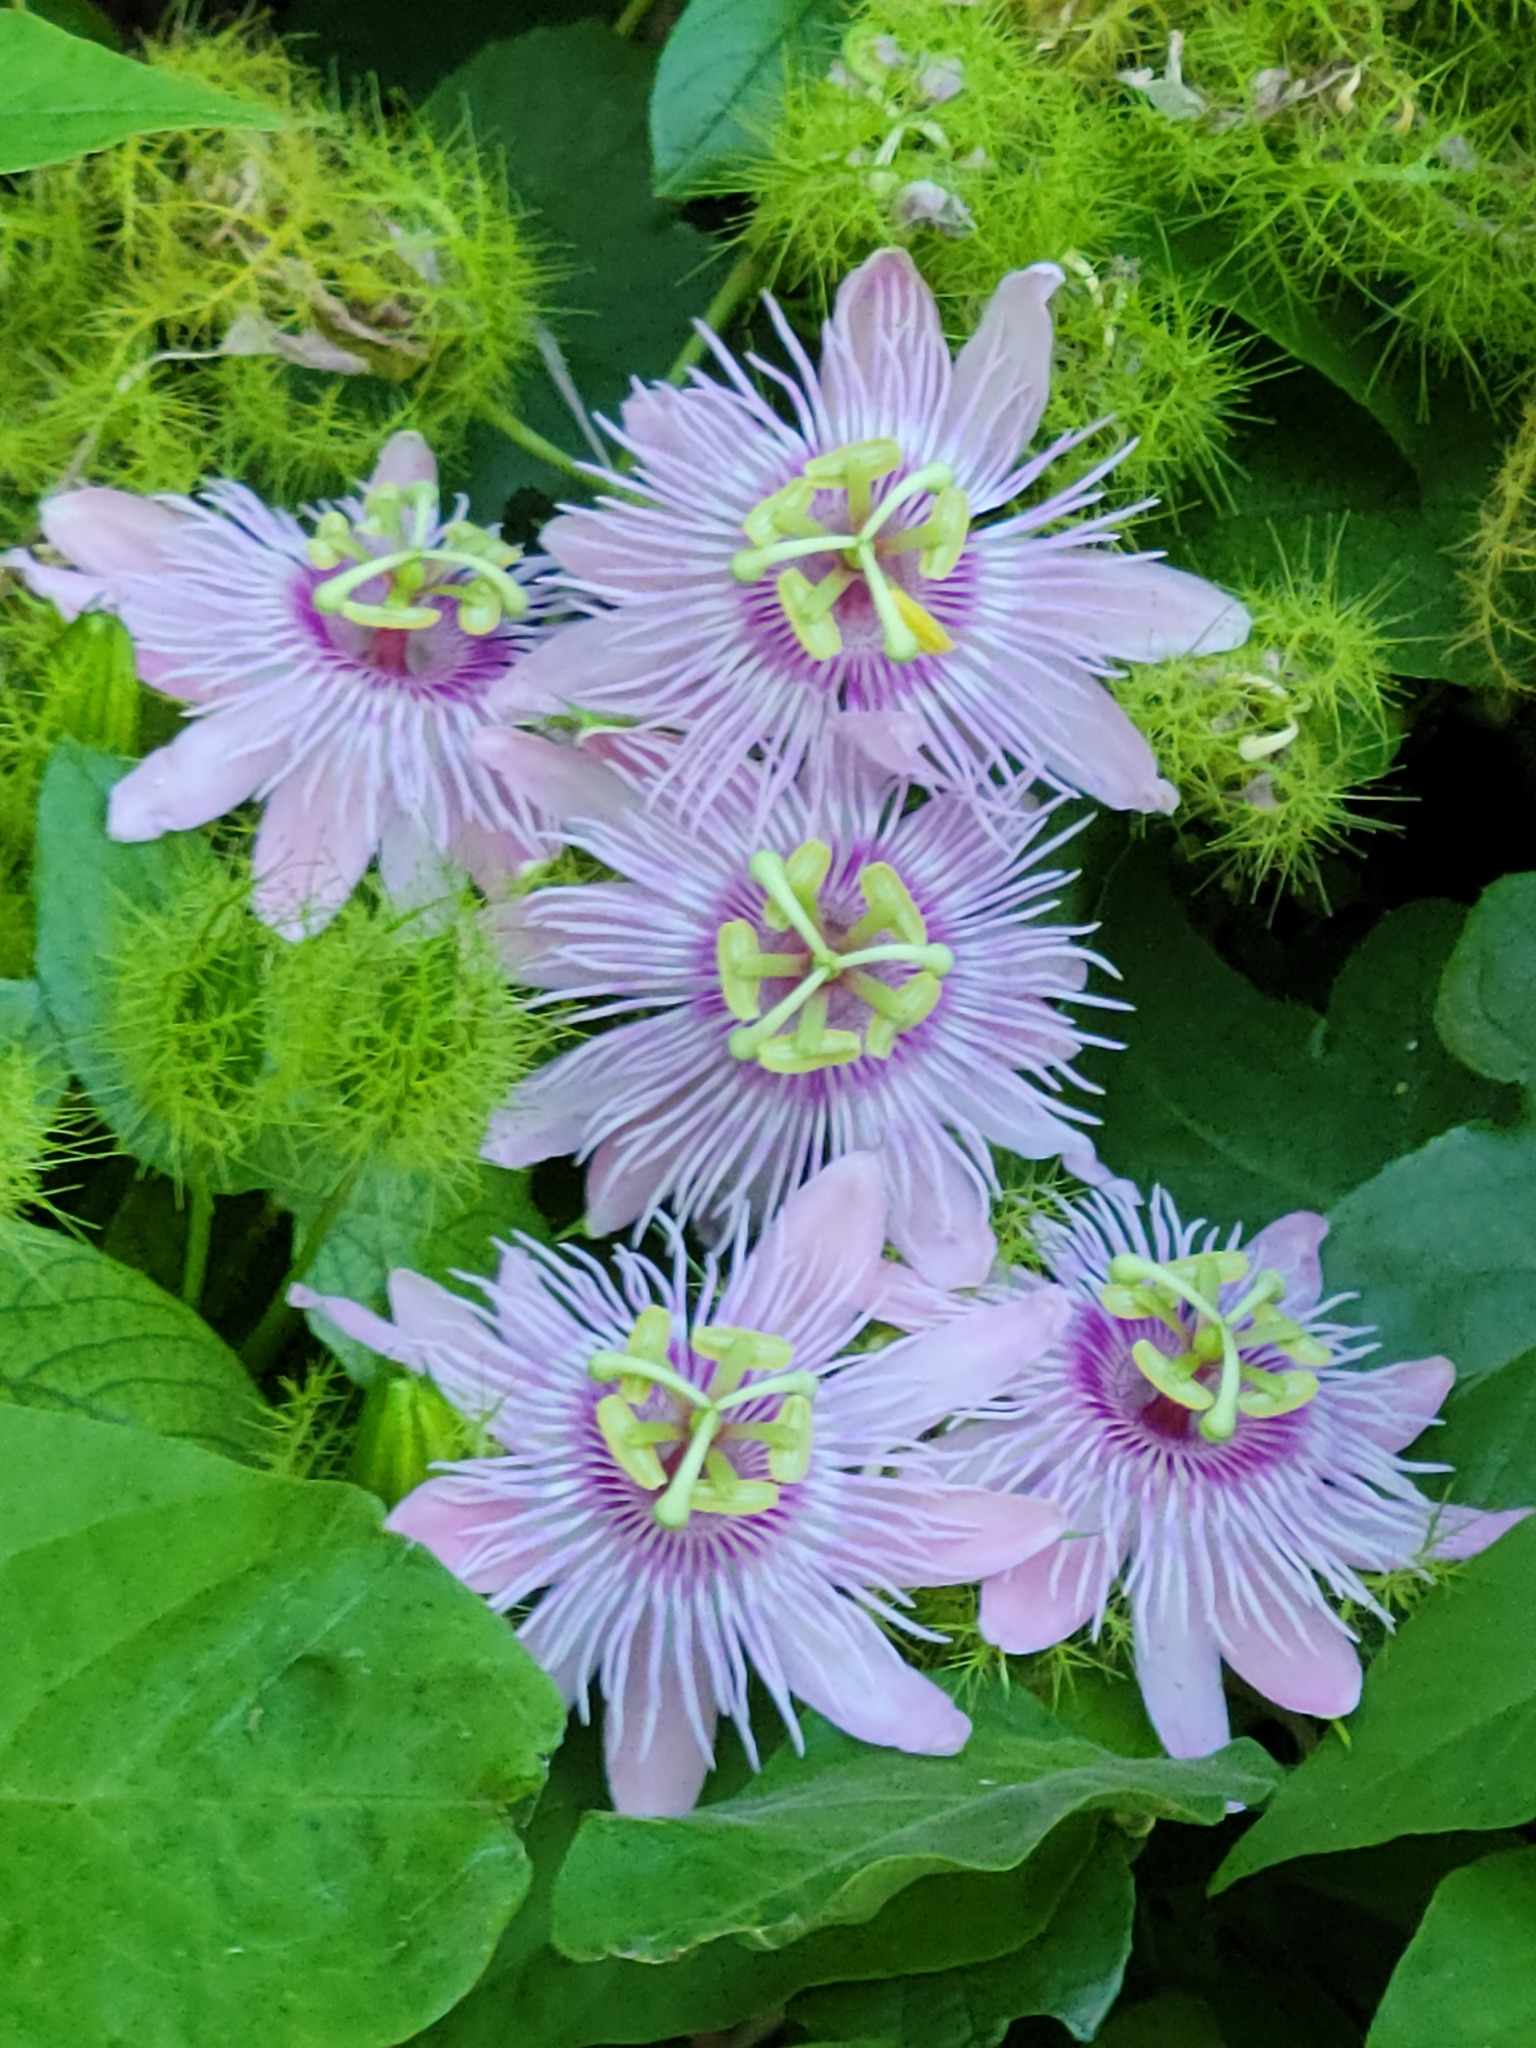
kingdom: Plantae
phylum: Tracheophyta
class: Magnoliopsida
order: Malpighiales
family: Passifloraceae
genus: Passiflora
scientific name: Passiflora
